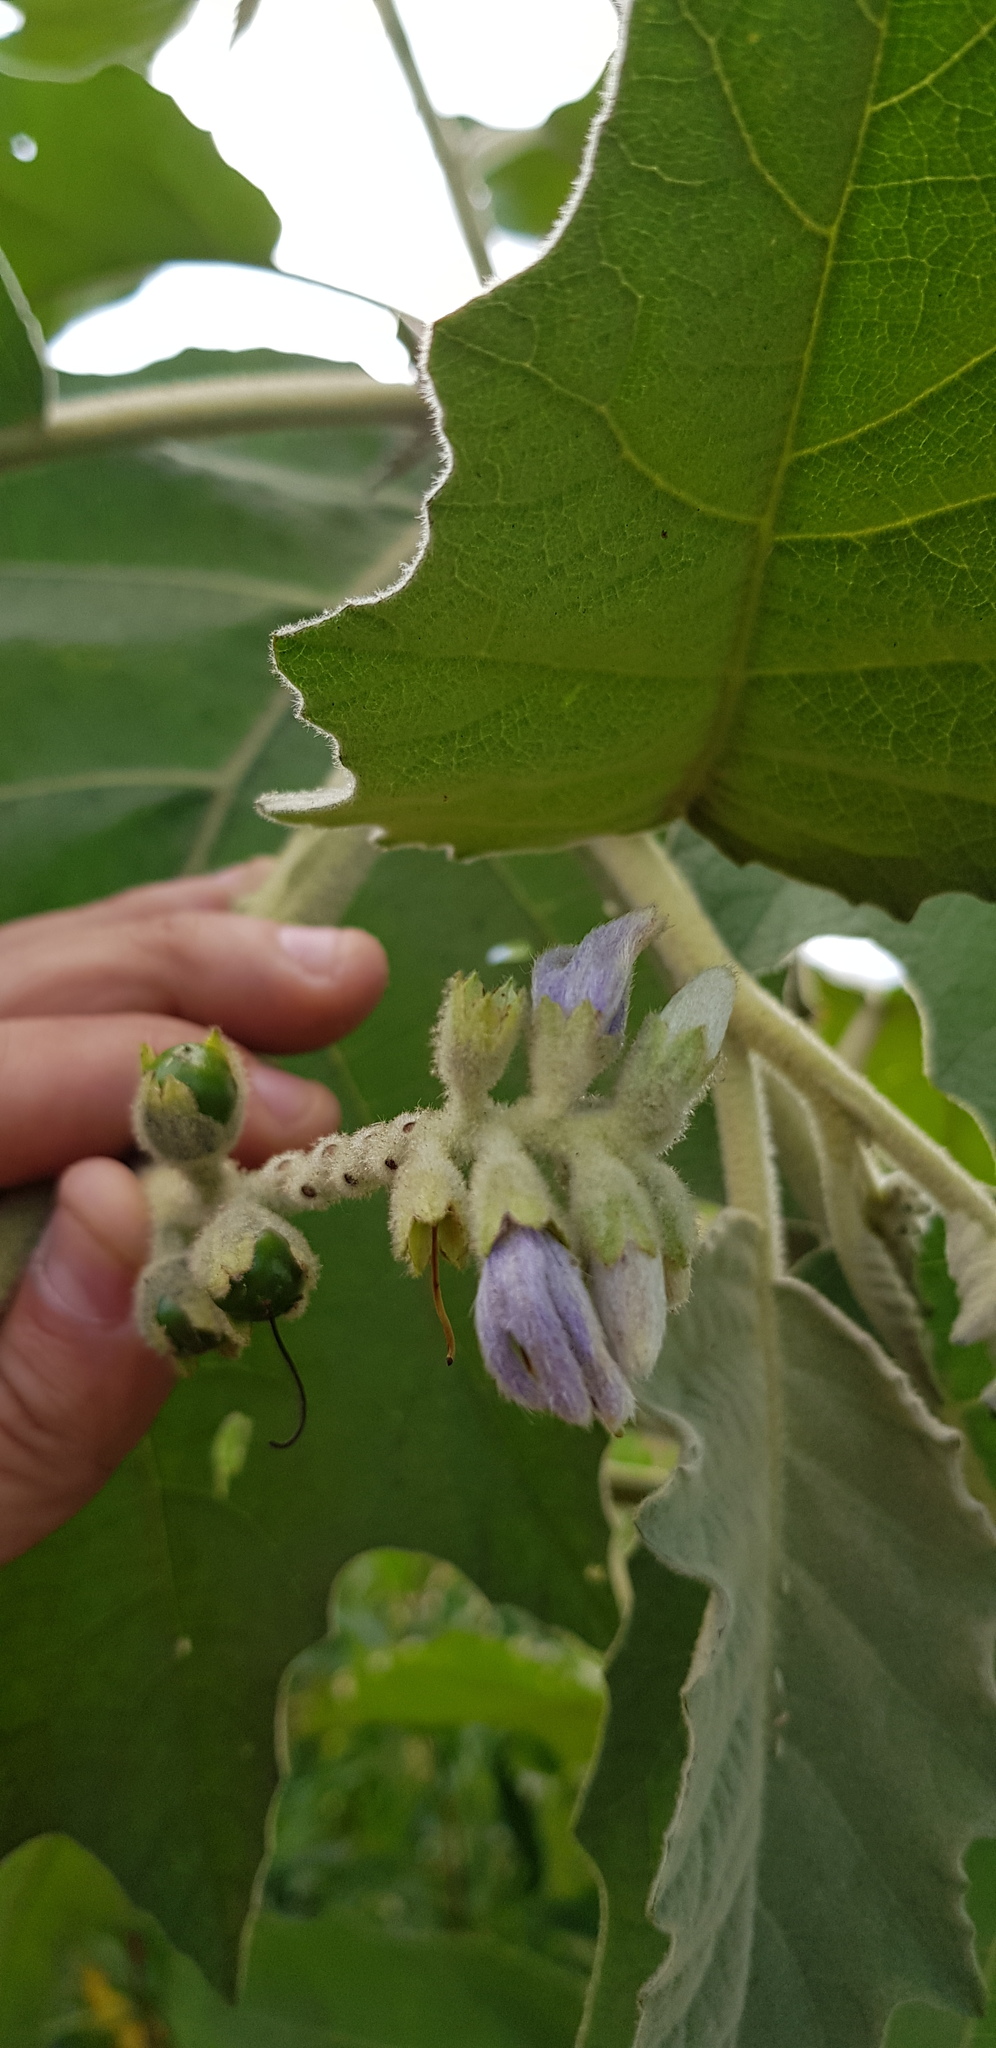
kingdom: Plantae
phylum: Tracheophyta
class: Magnoliopsida
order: Solanales
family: Solanaceae
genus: Solanum
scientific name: Solanum mitlense
